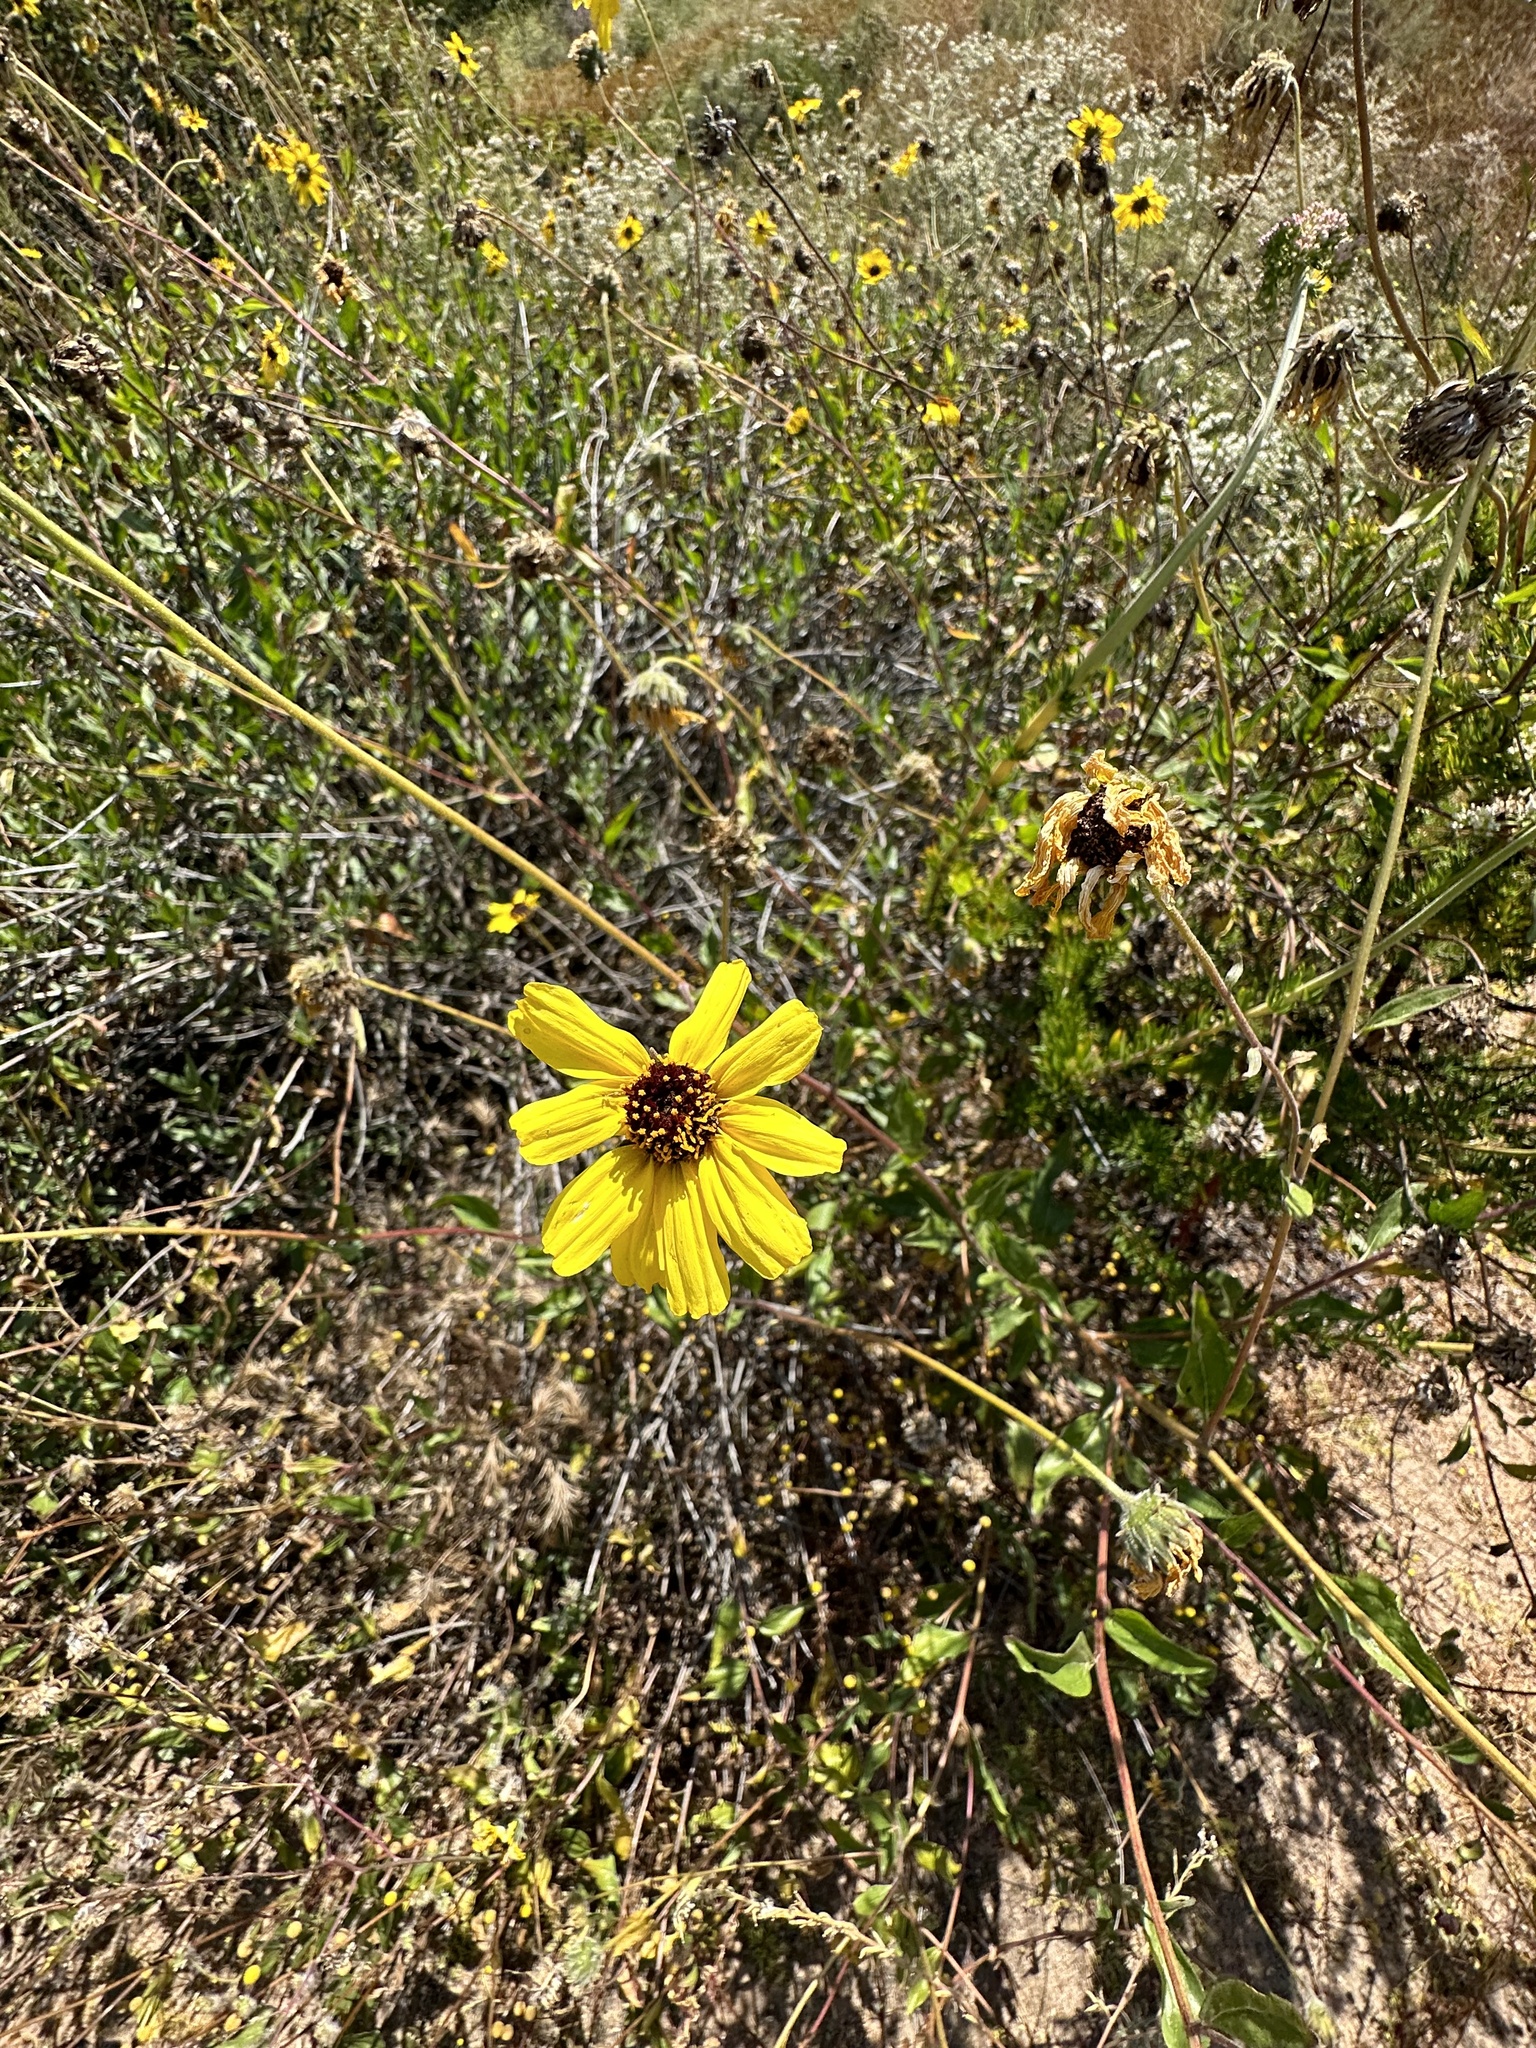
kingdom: Plantae
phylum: Tracheophyta
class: Magnoliopsida
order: Asterales
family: Asteraceae
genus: Encelia
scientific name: Encelia californica
